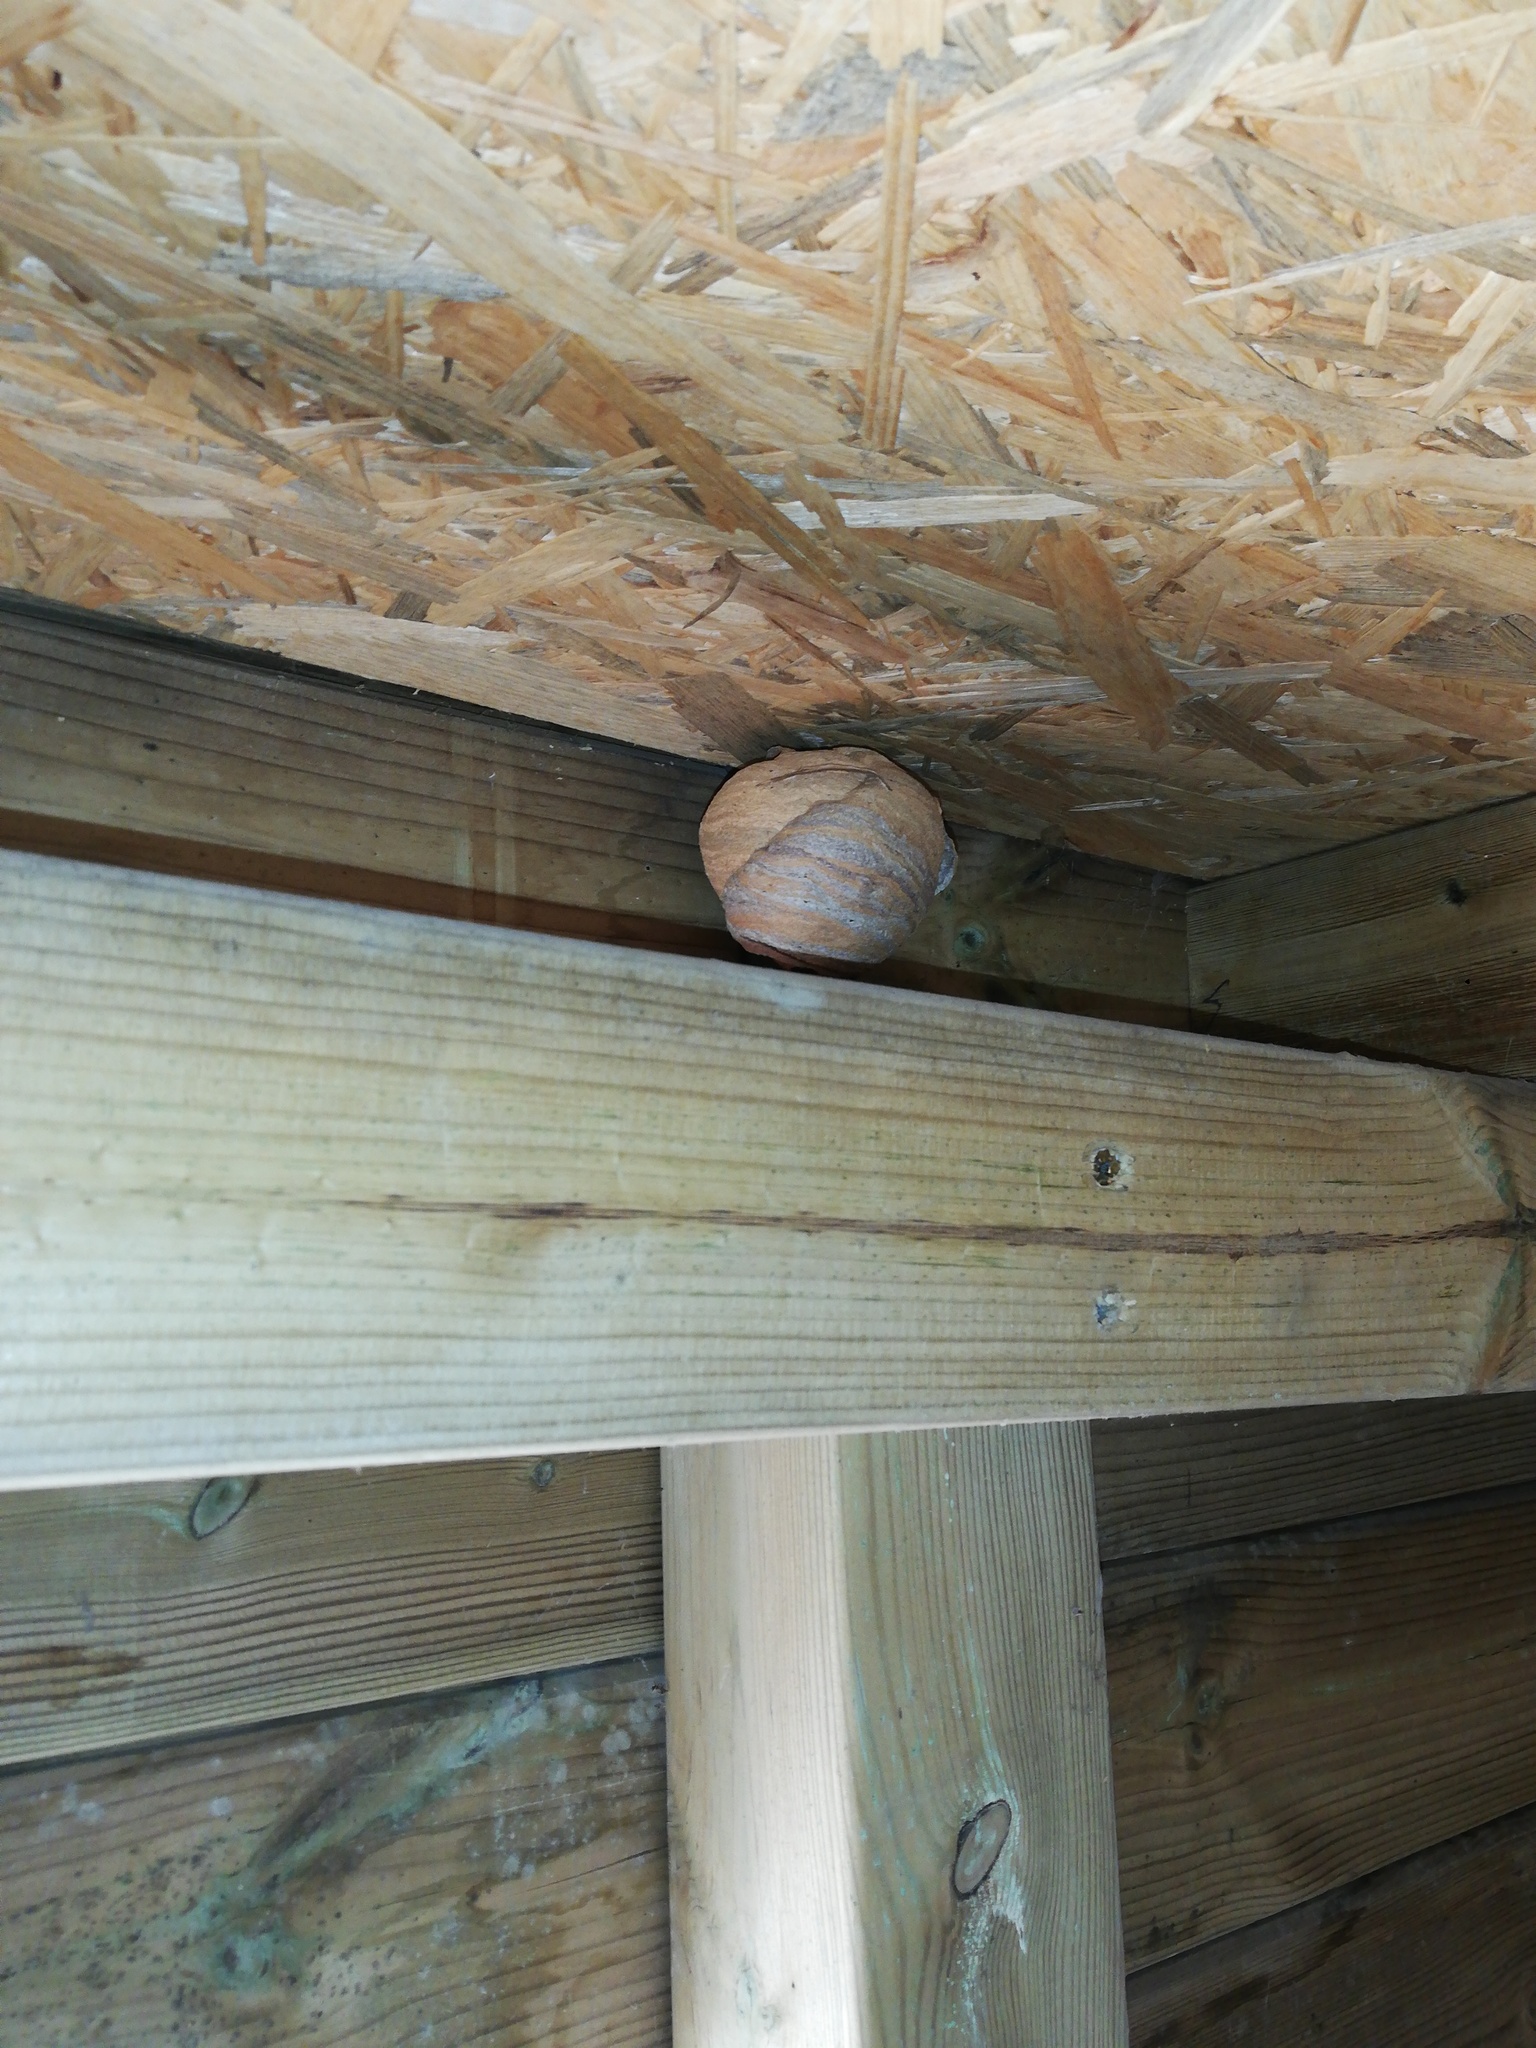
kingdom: Animalia
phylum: Arthropoda
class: Insecta
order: Hymenoptera
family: Vespidae
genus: Vespa
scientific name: Vespa velutina
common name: Asian hornet
